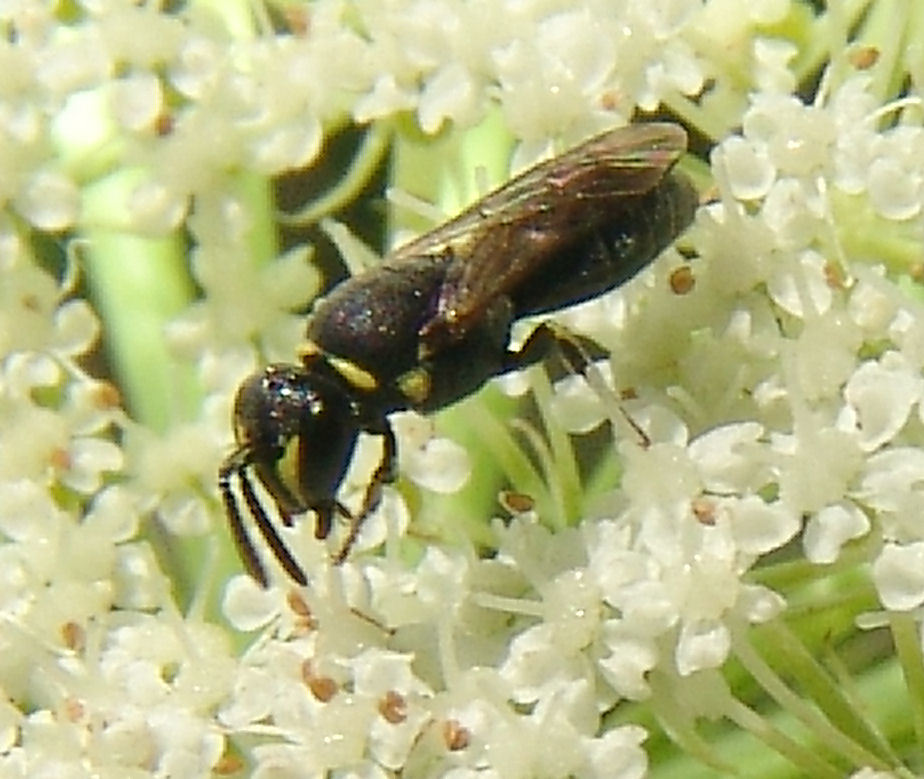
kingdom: Animalia
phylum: Arthropoda
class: Insecta
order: Hymenoptera
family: Colletidae
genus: Prosopis
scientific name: Prosopis
